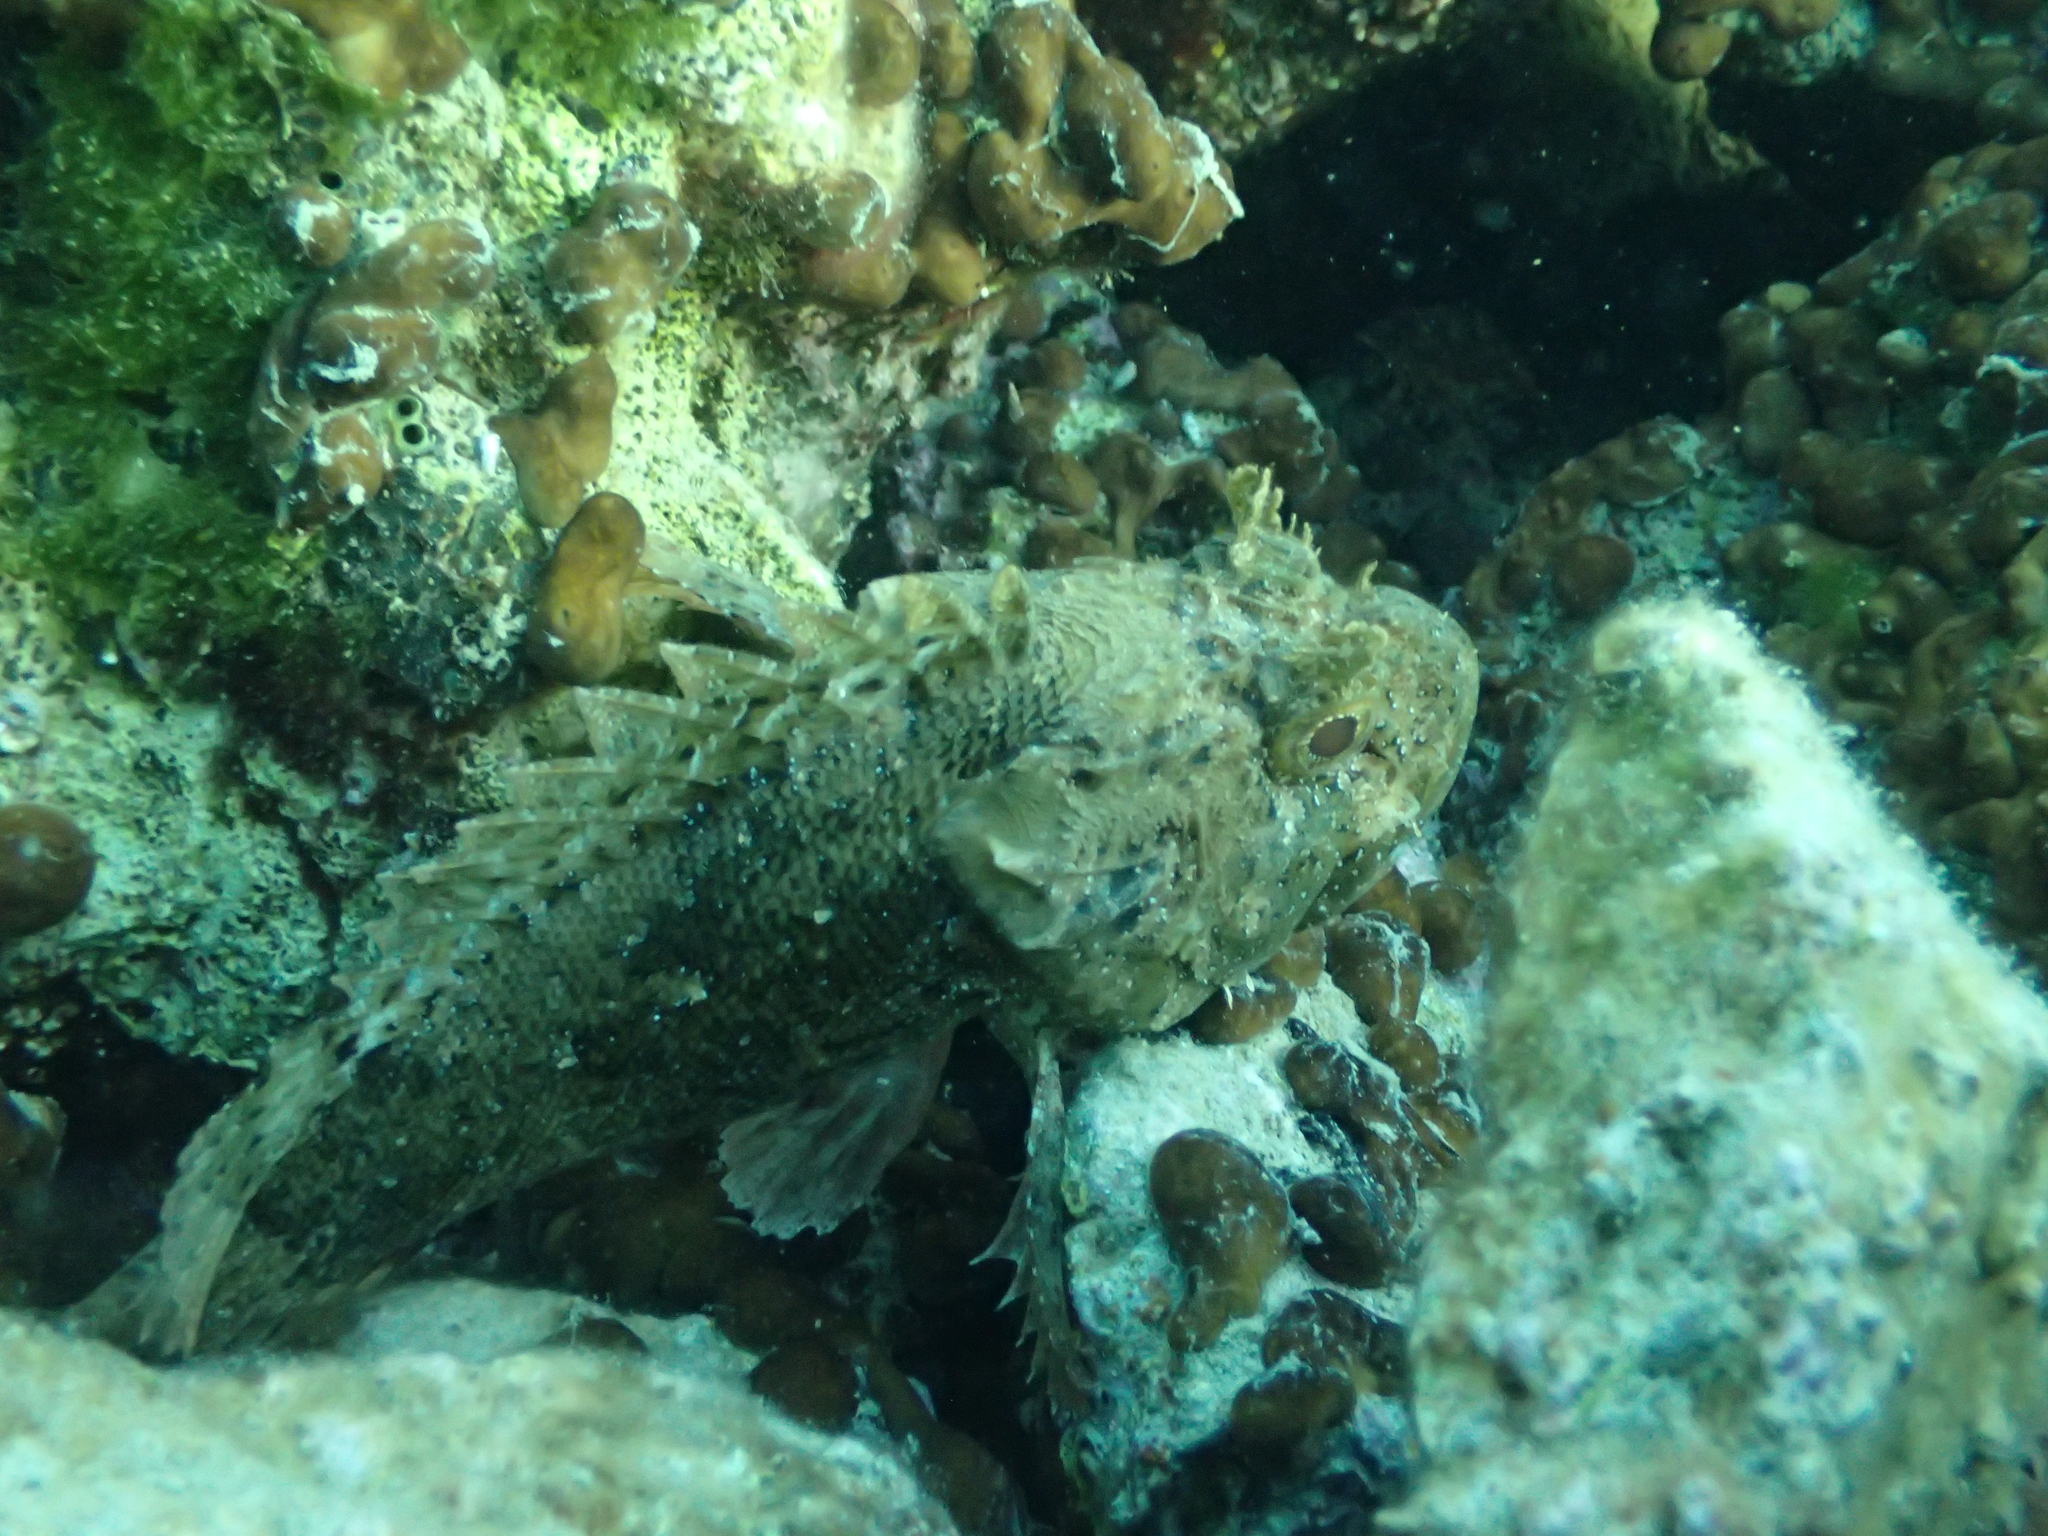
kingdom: Animalia
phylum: Chordata
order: Scorpaeniformes
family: Scorpaenidae
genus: Scorpaena
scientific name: Scorpaena porcus
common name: Black scorpionfish
